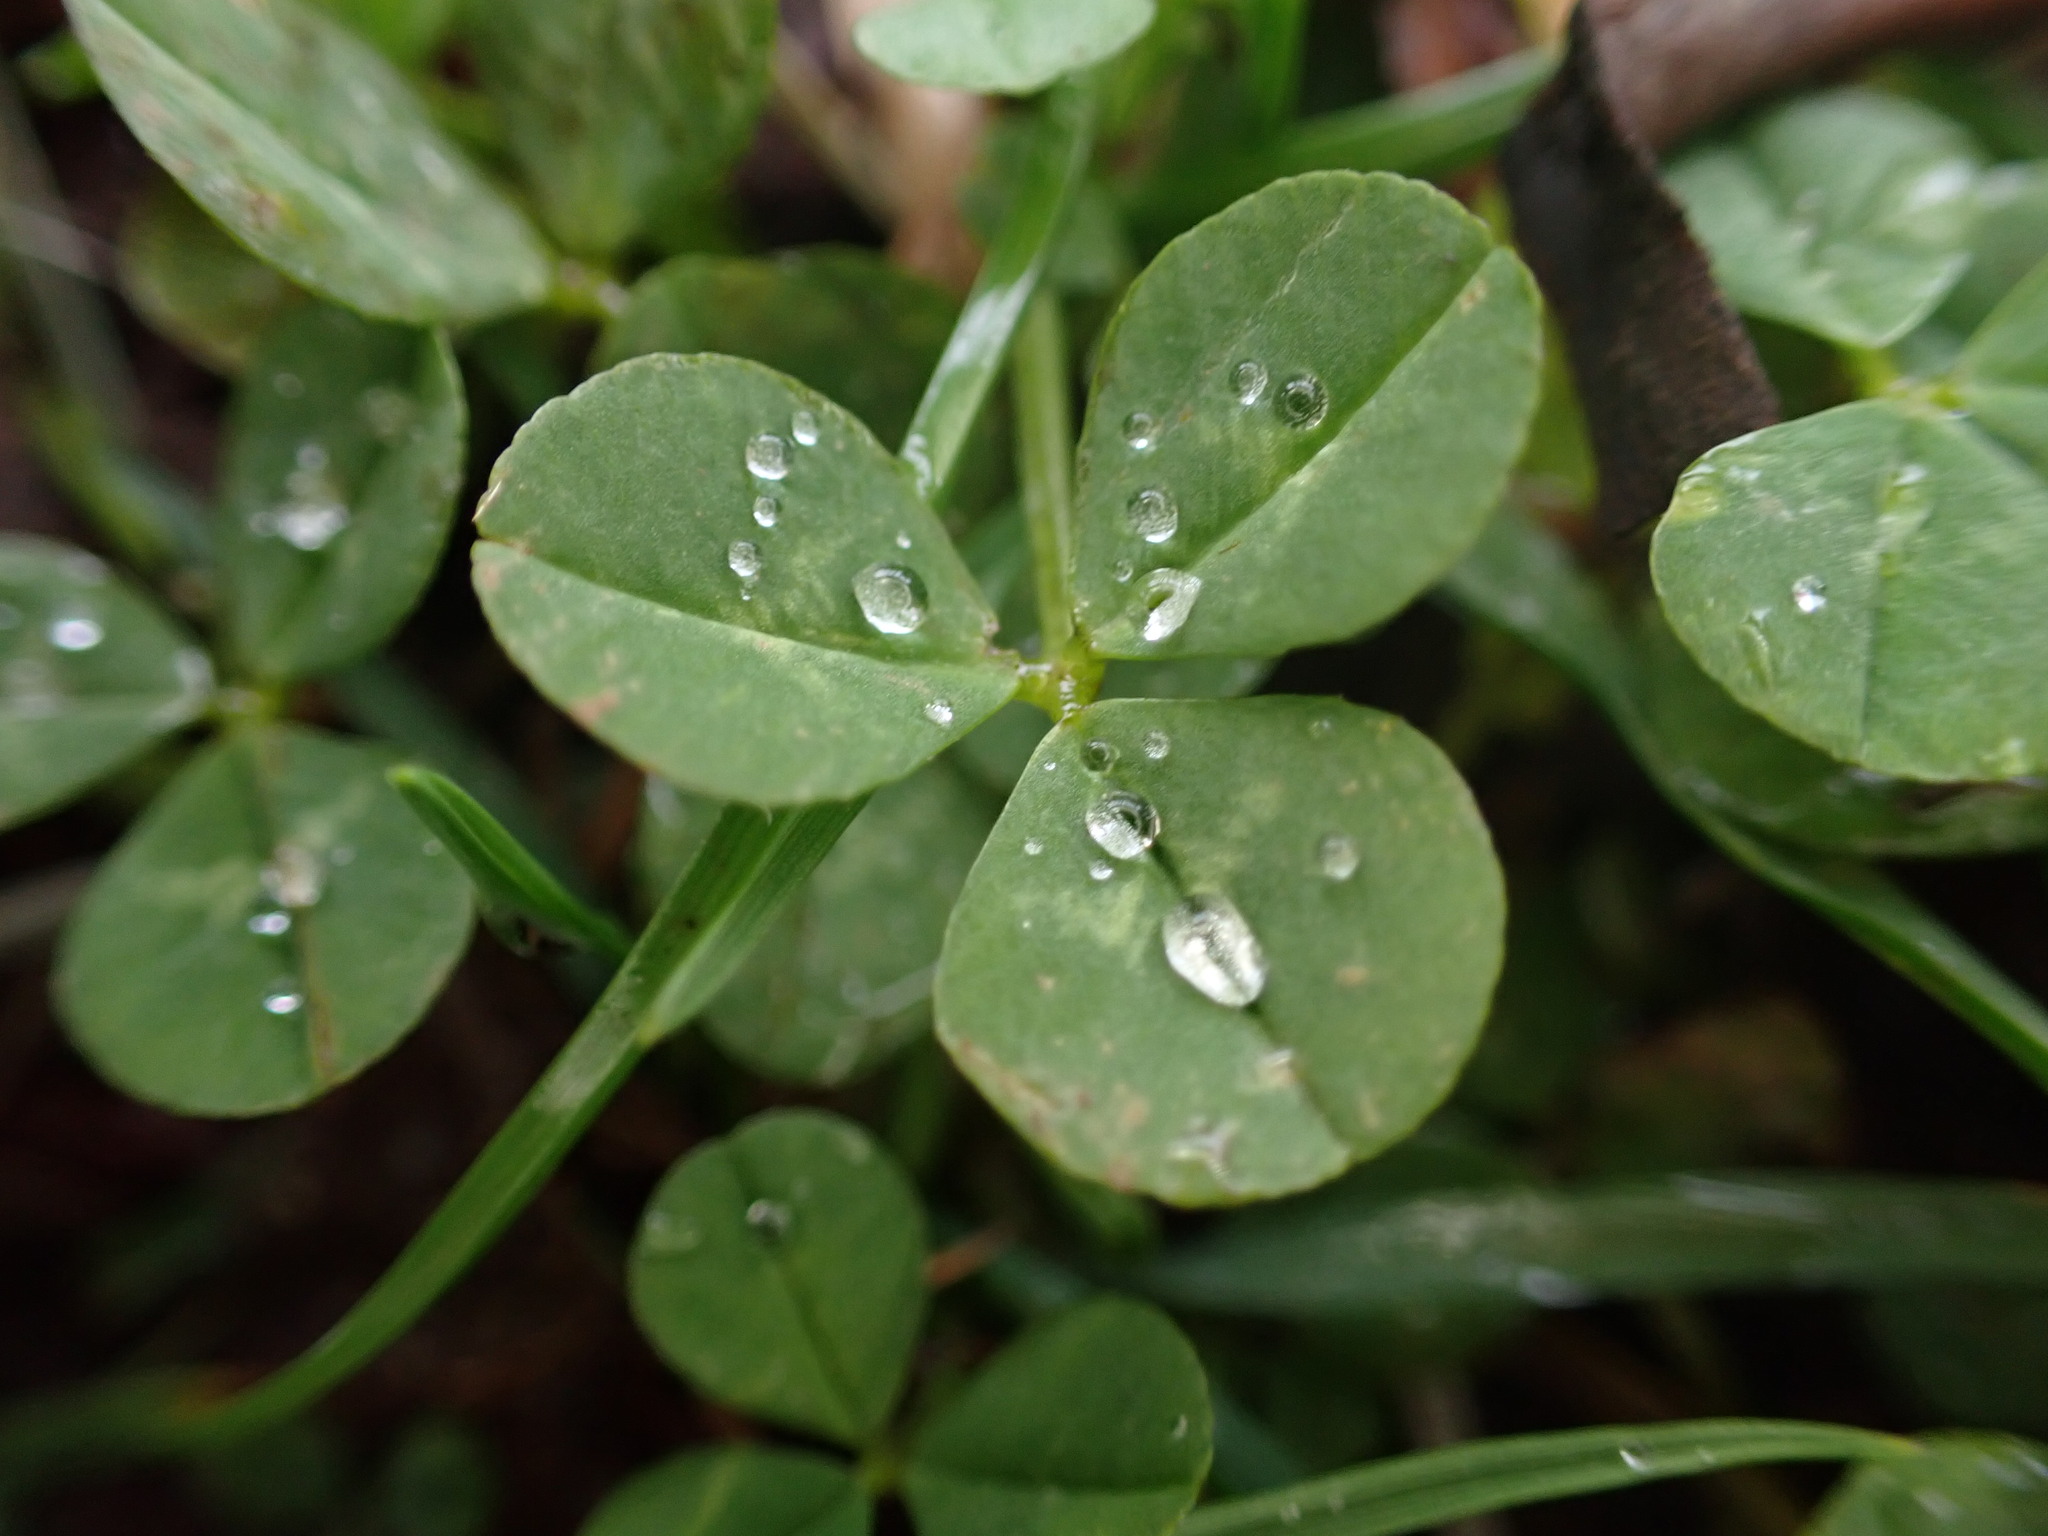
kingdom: Plantae
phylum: Tracheophyta
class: Magnoliopsida
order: Fabales
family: Fabaceae
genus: Trifolium
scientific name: Trifolium repens
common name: White clover
